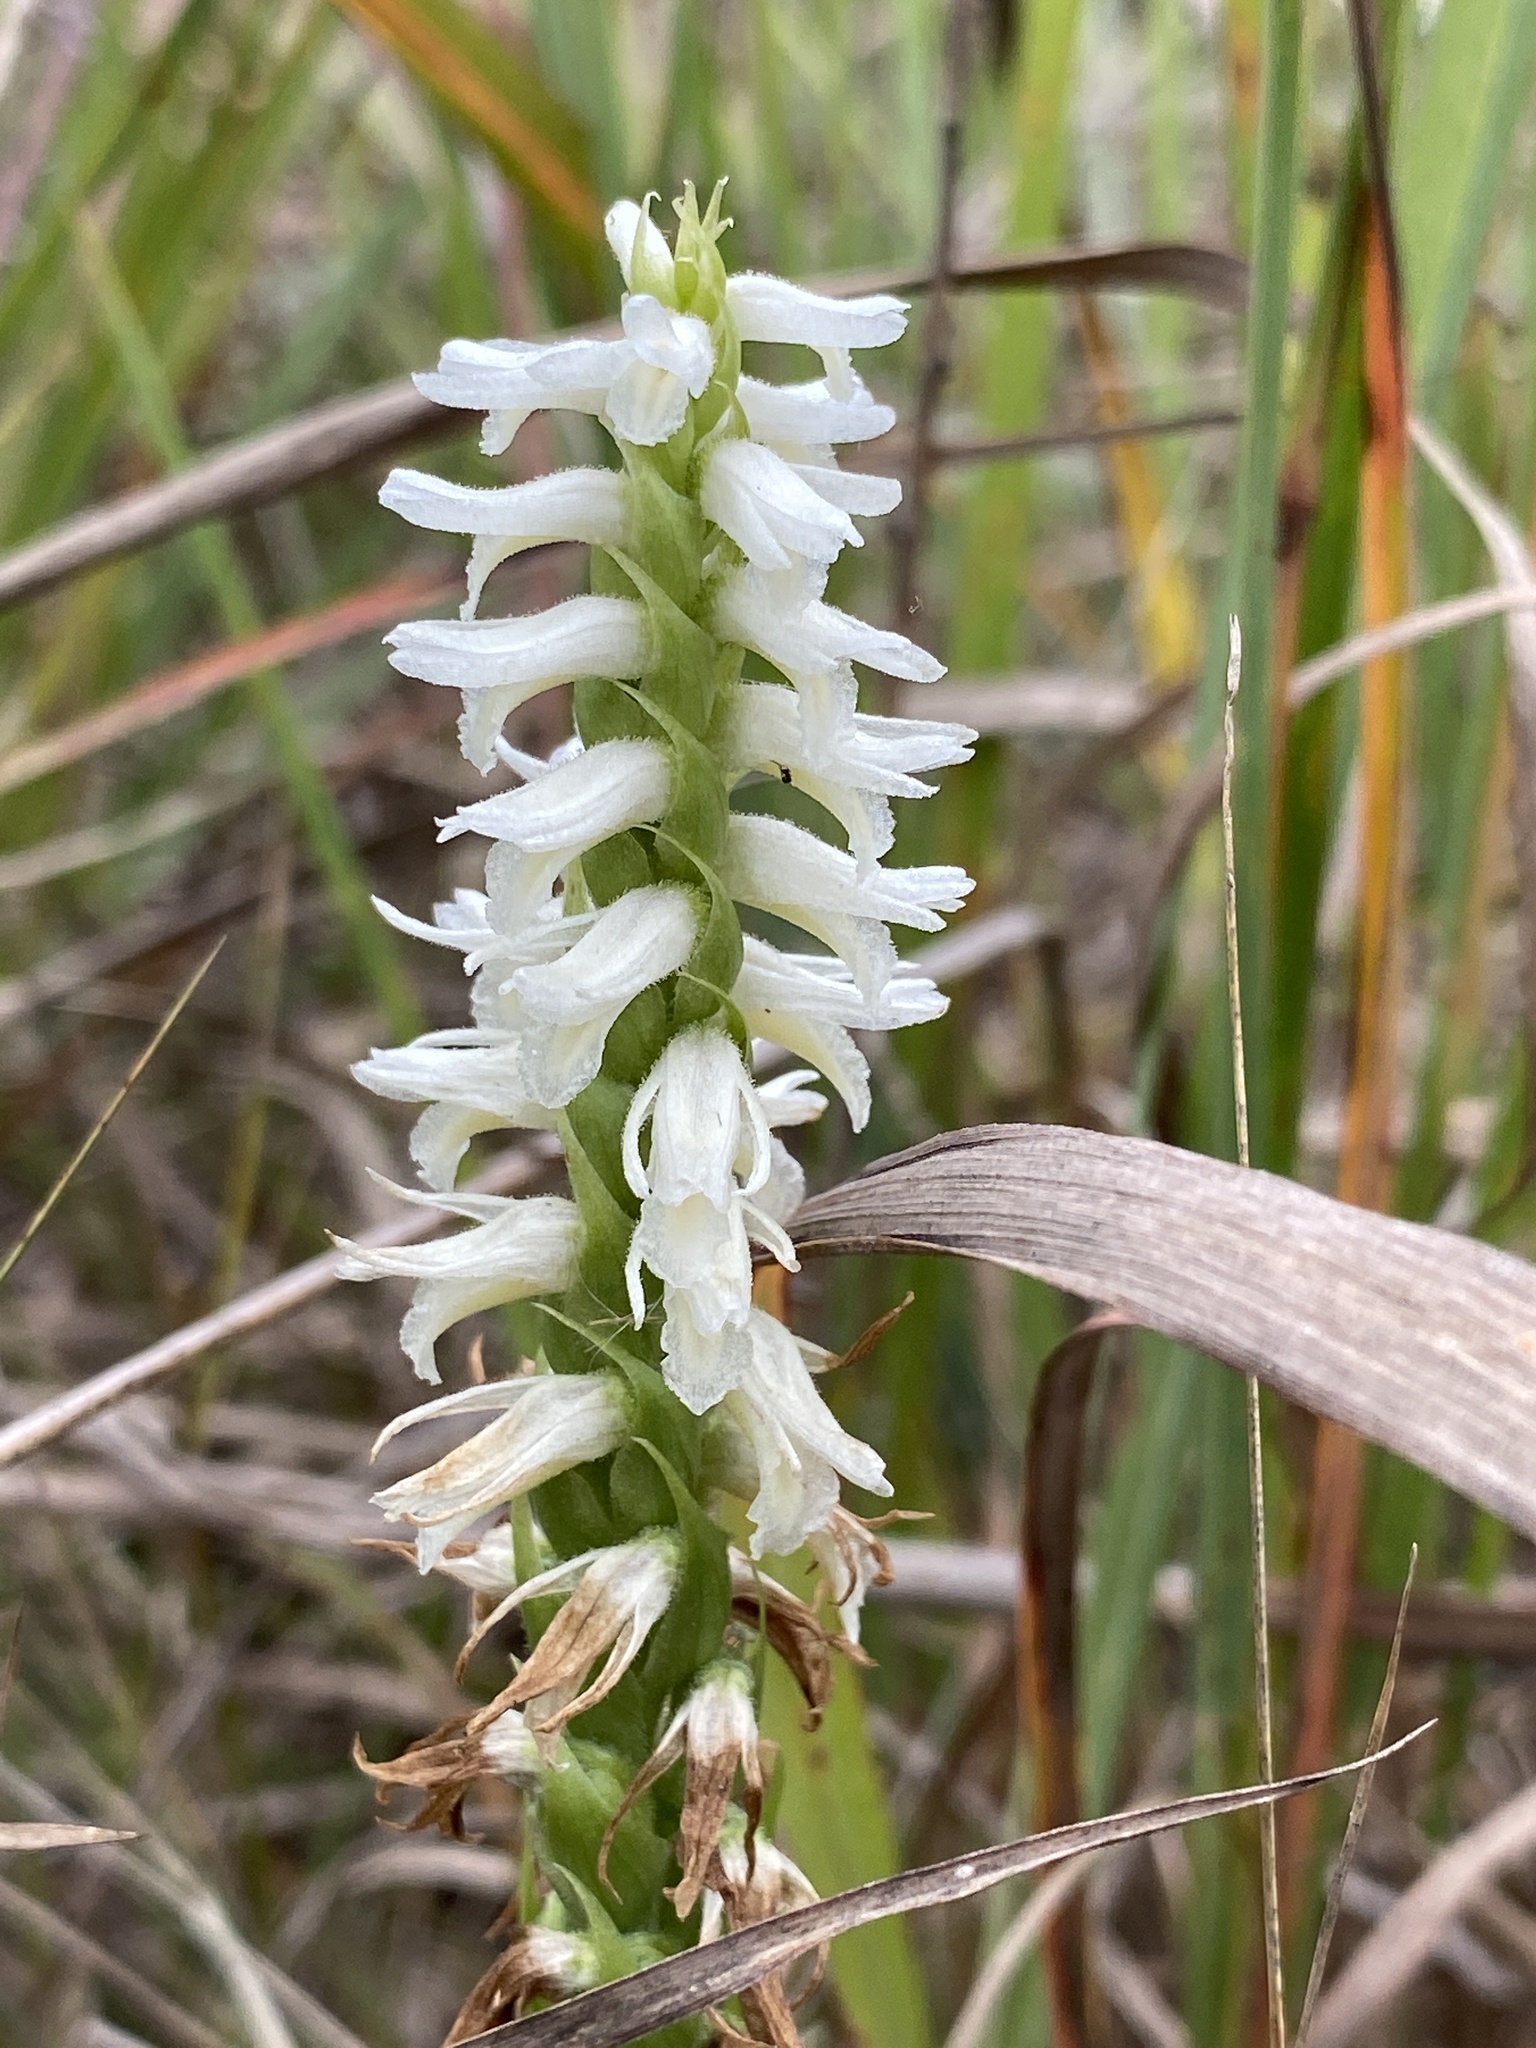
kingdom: Plantae
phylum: Tracheophyta
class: Liliopsida
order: Asparagales
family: Orchidaceae
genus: Spiranthes
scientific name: Spiranthes magnicamporum
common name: Great plains ladies'-tresses
